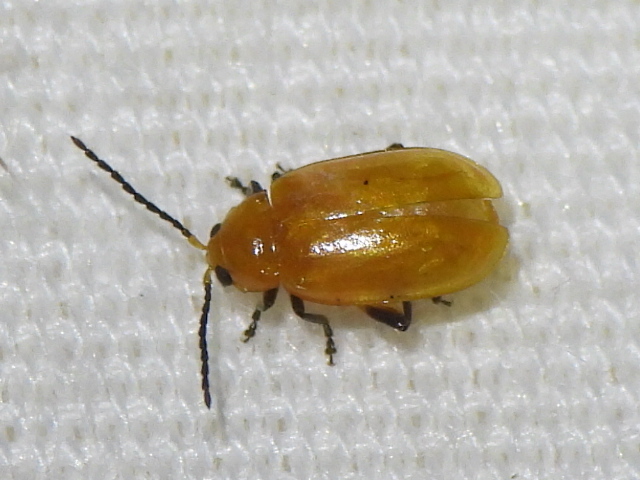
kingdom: Animalia
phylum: Arthropoda
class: Insecta
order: Coleoptera
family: Chrysomelidae
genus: Parchicola
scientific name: Parchicola tibialis
